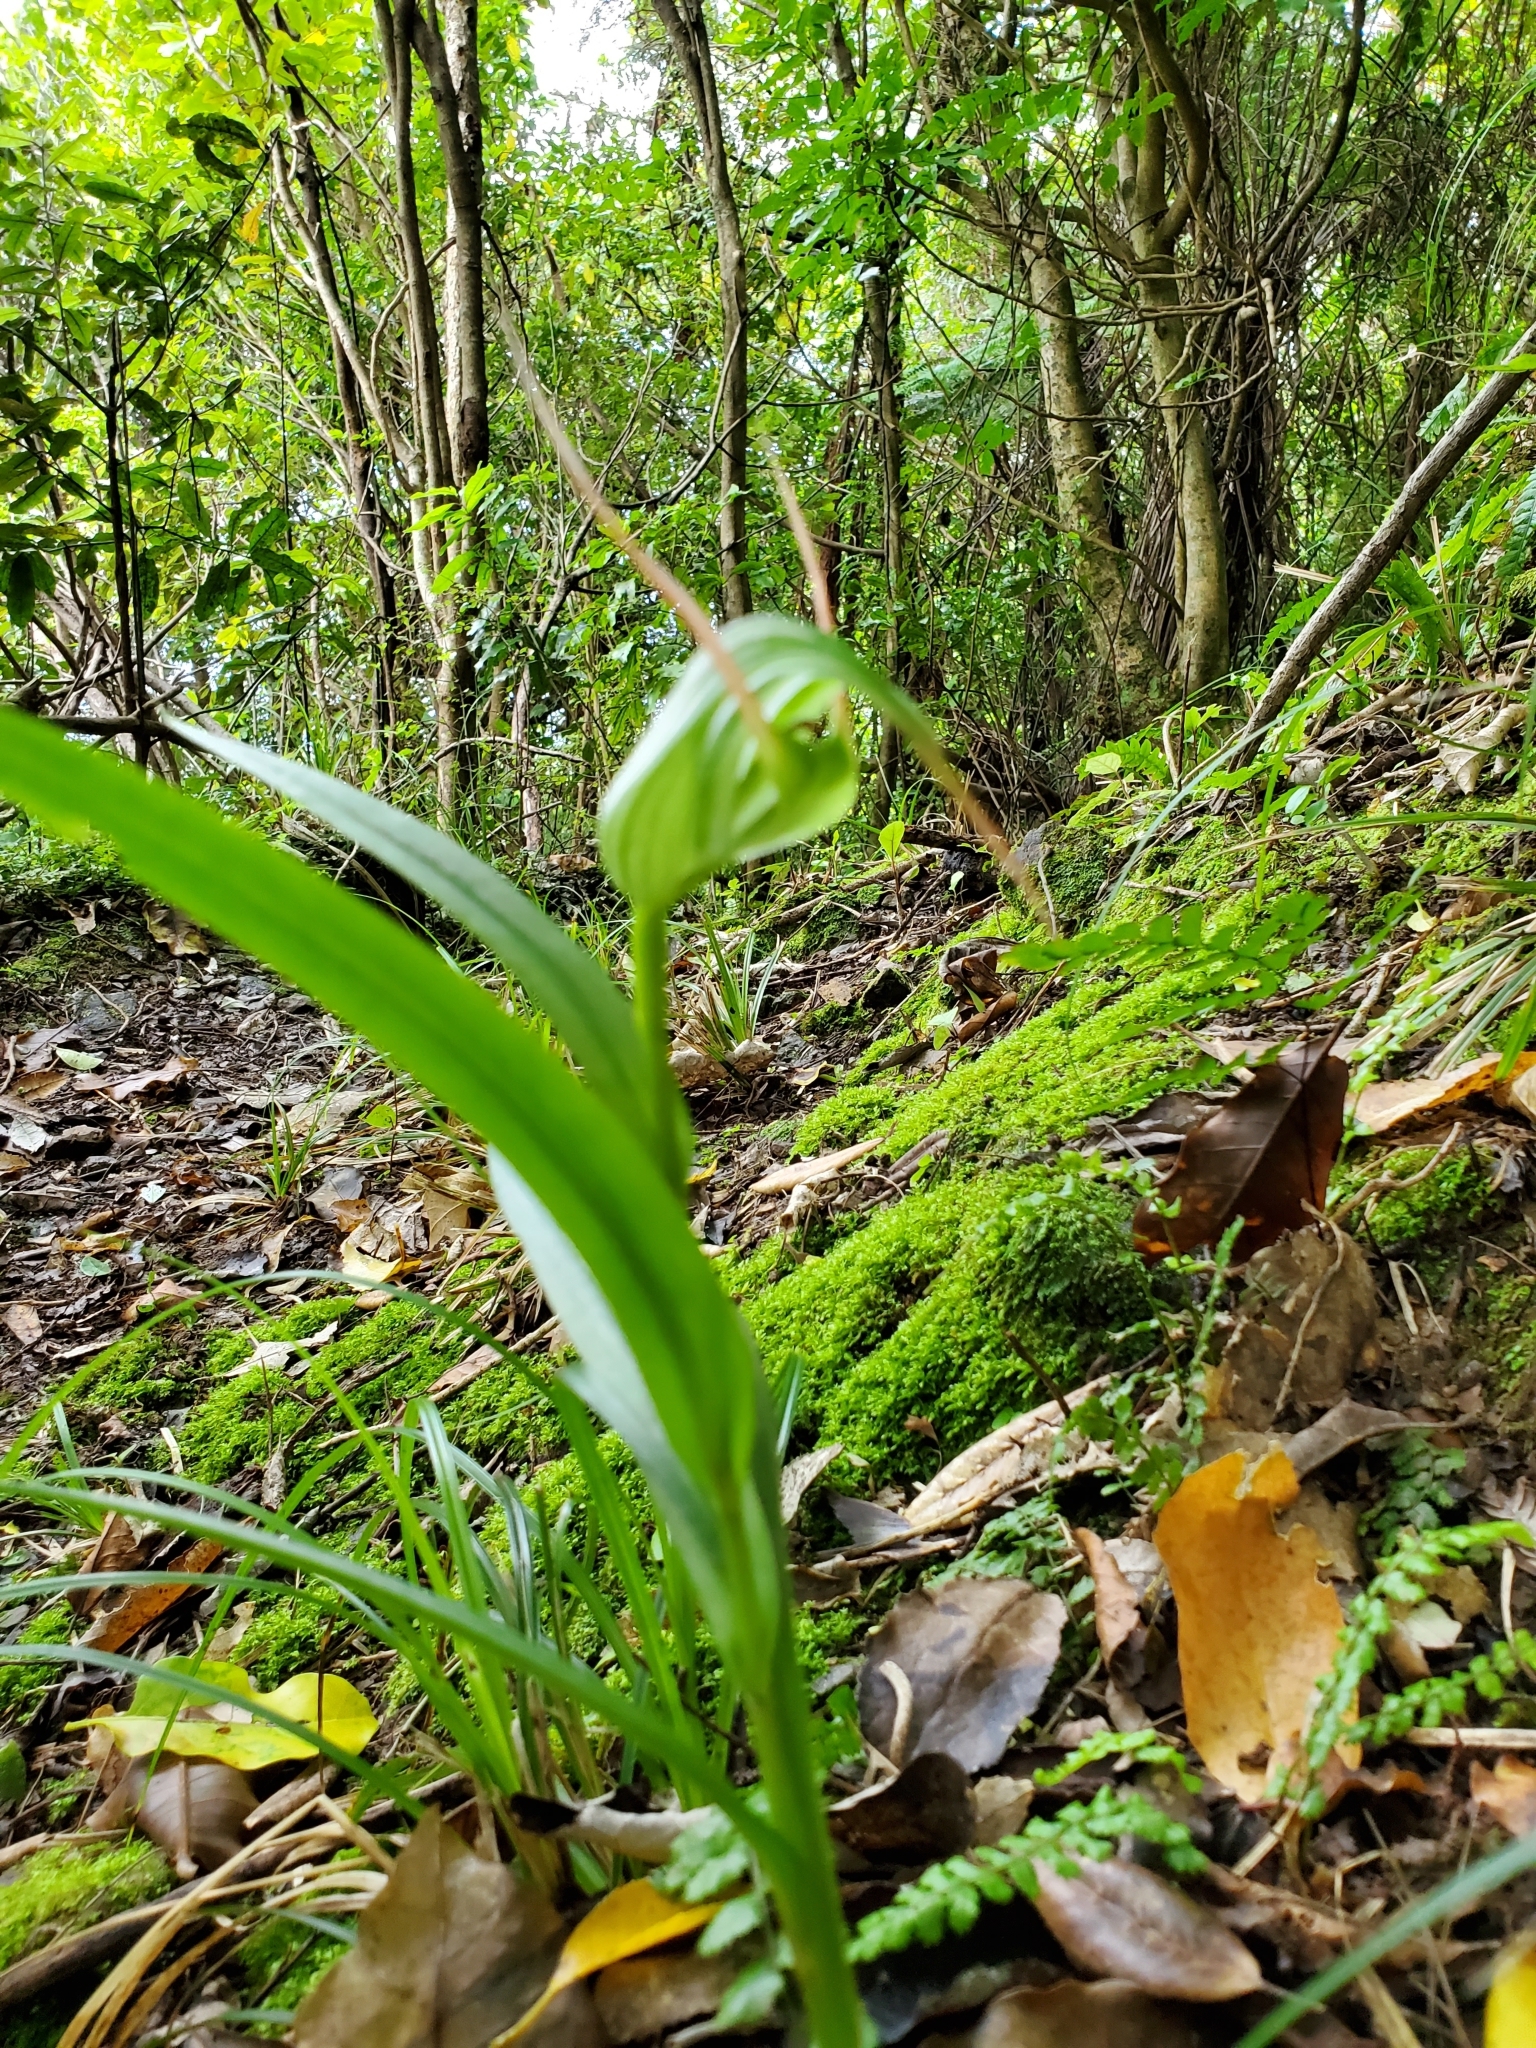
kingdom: Plantae
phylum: Tracheophyta
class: Liliopsida
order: Asparagales
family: Orchidaceae
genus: Pterostylis
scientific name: Pterostylis banksii
